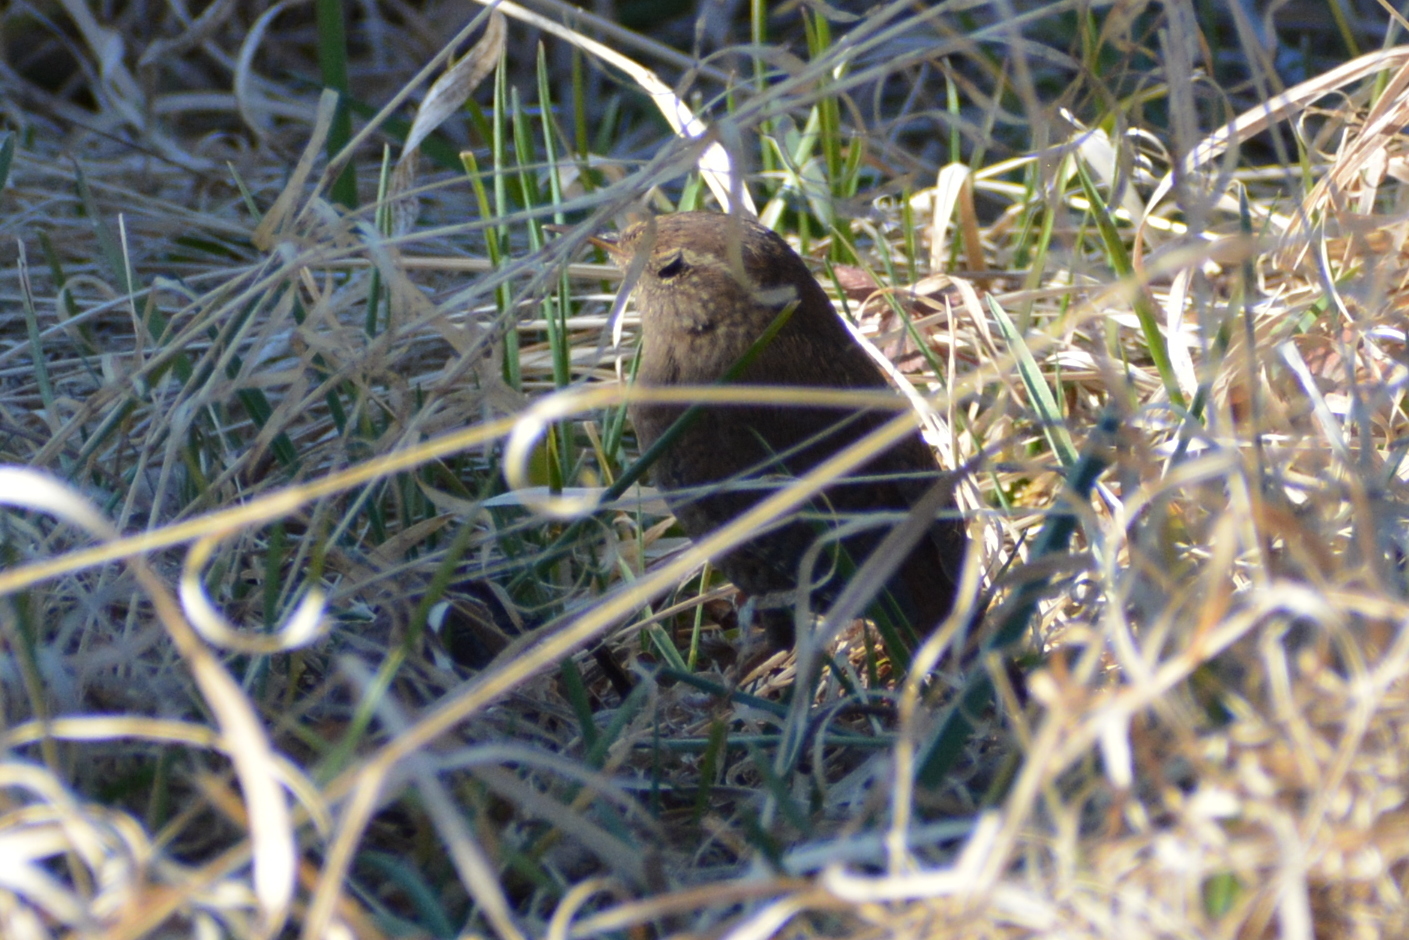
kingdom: Animalia
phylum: Chordata
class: Aves
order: Passeriformes
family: Troglodytidae
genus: Troglodytes
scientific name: Troglodytes troglodytes
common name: Eurasian wren
